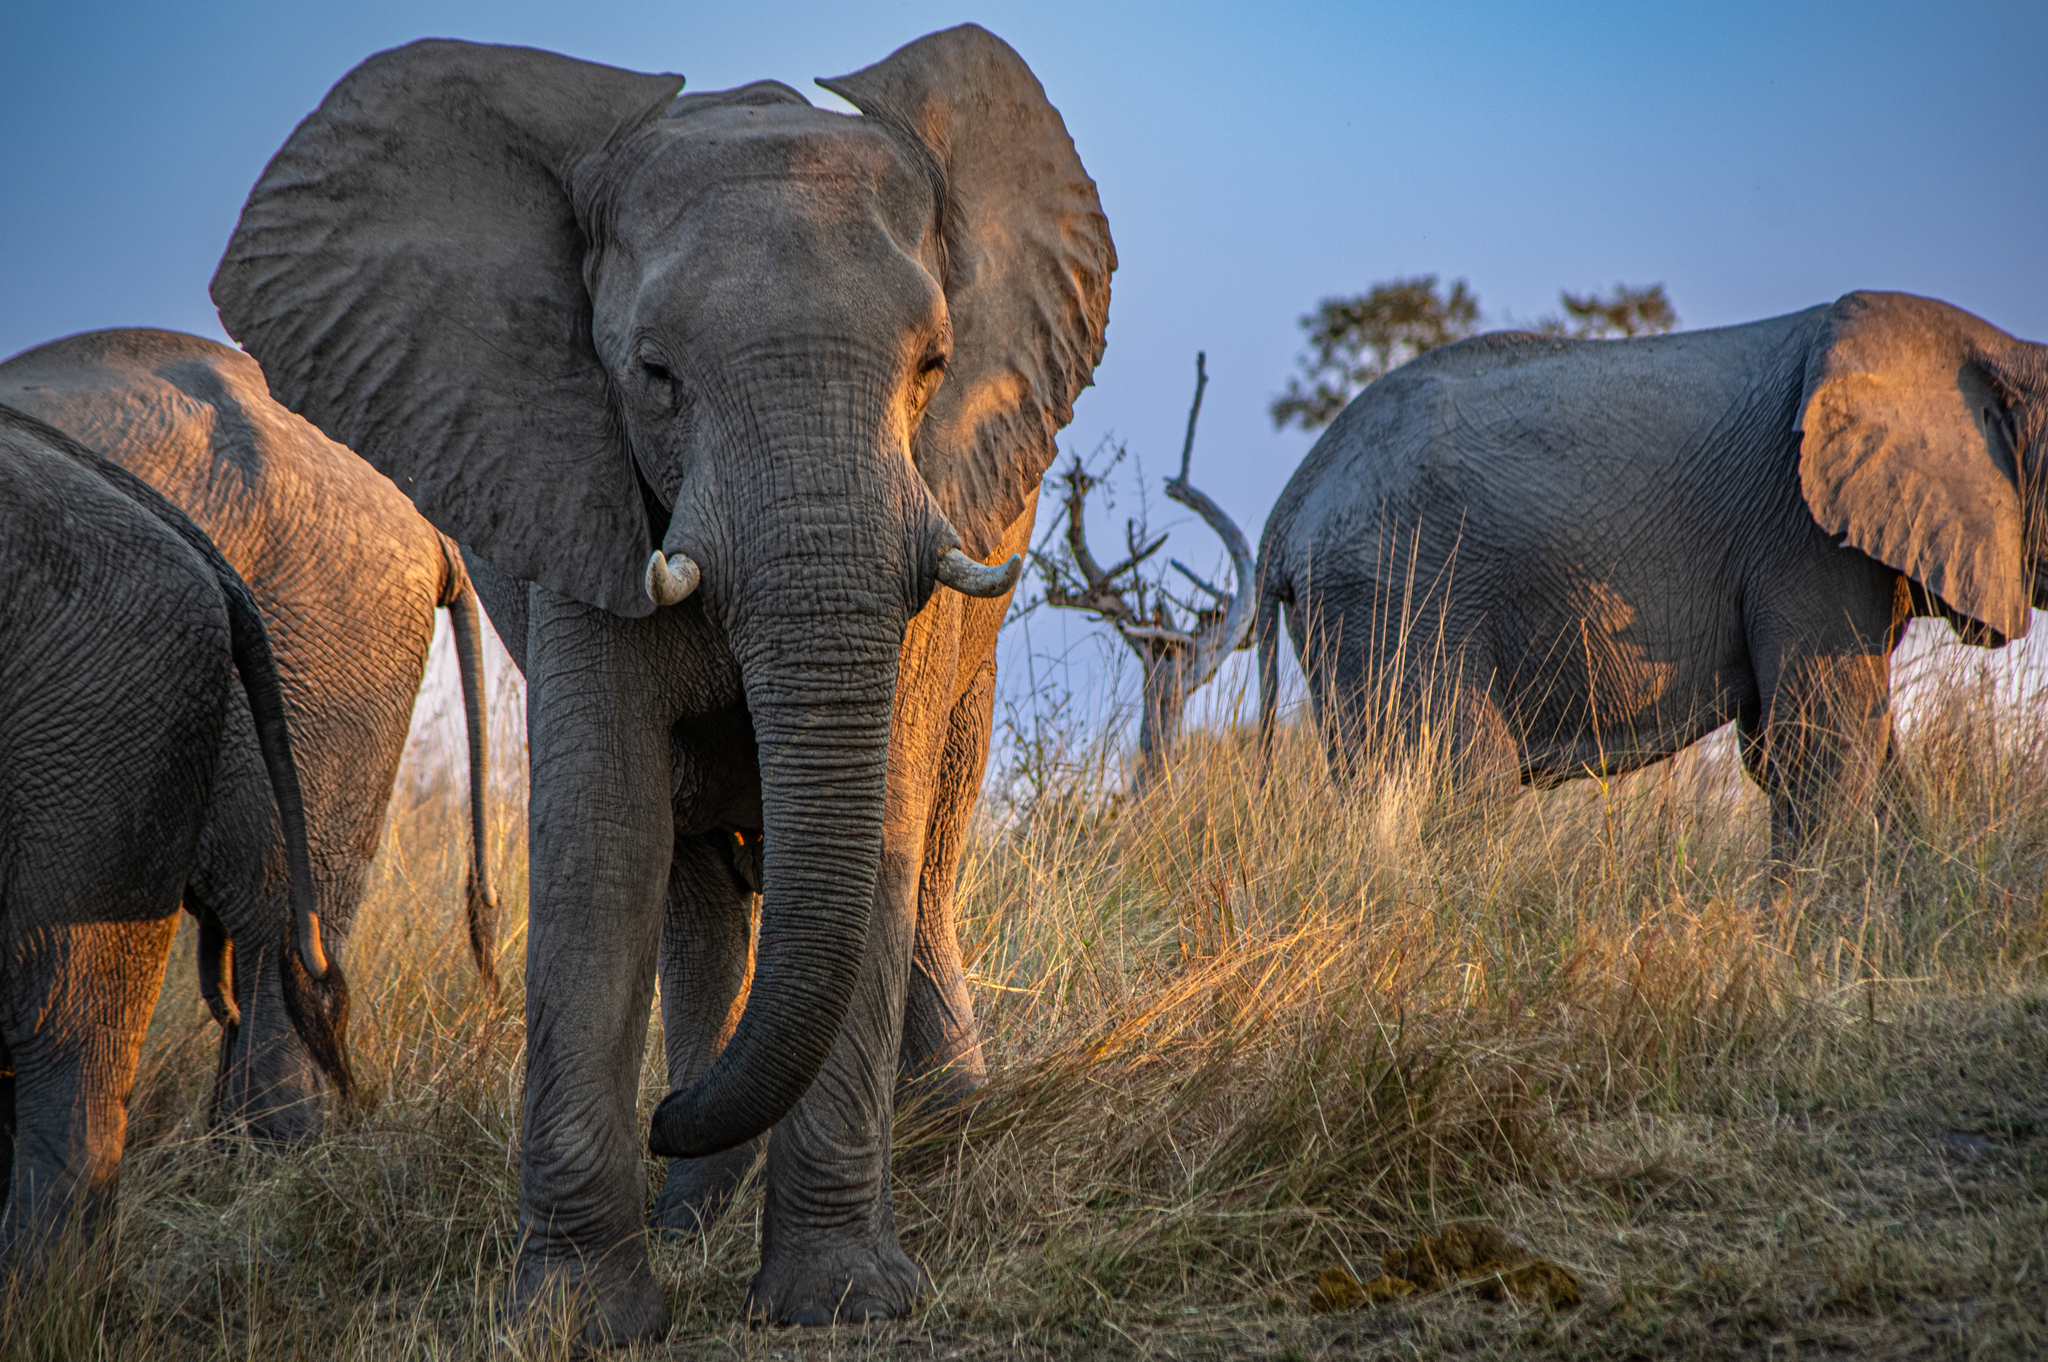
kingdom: Animalia
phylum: Chordata
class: Mammalia
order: Proboscidea
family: Elephantidae
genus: Loxodonta
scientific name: Loxodonta africana
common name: African elephant
